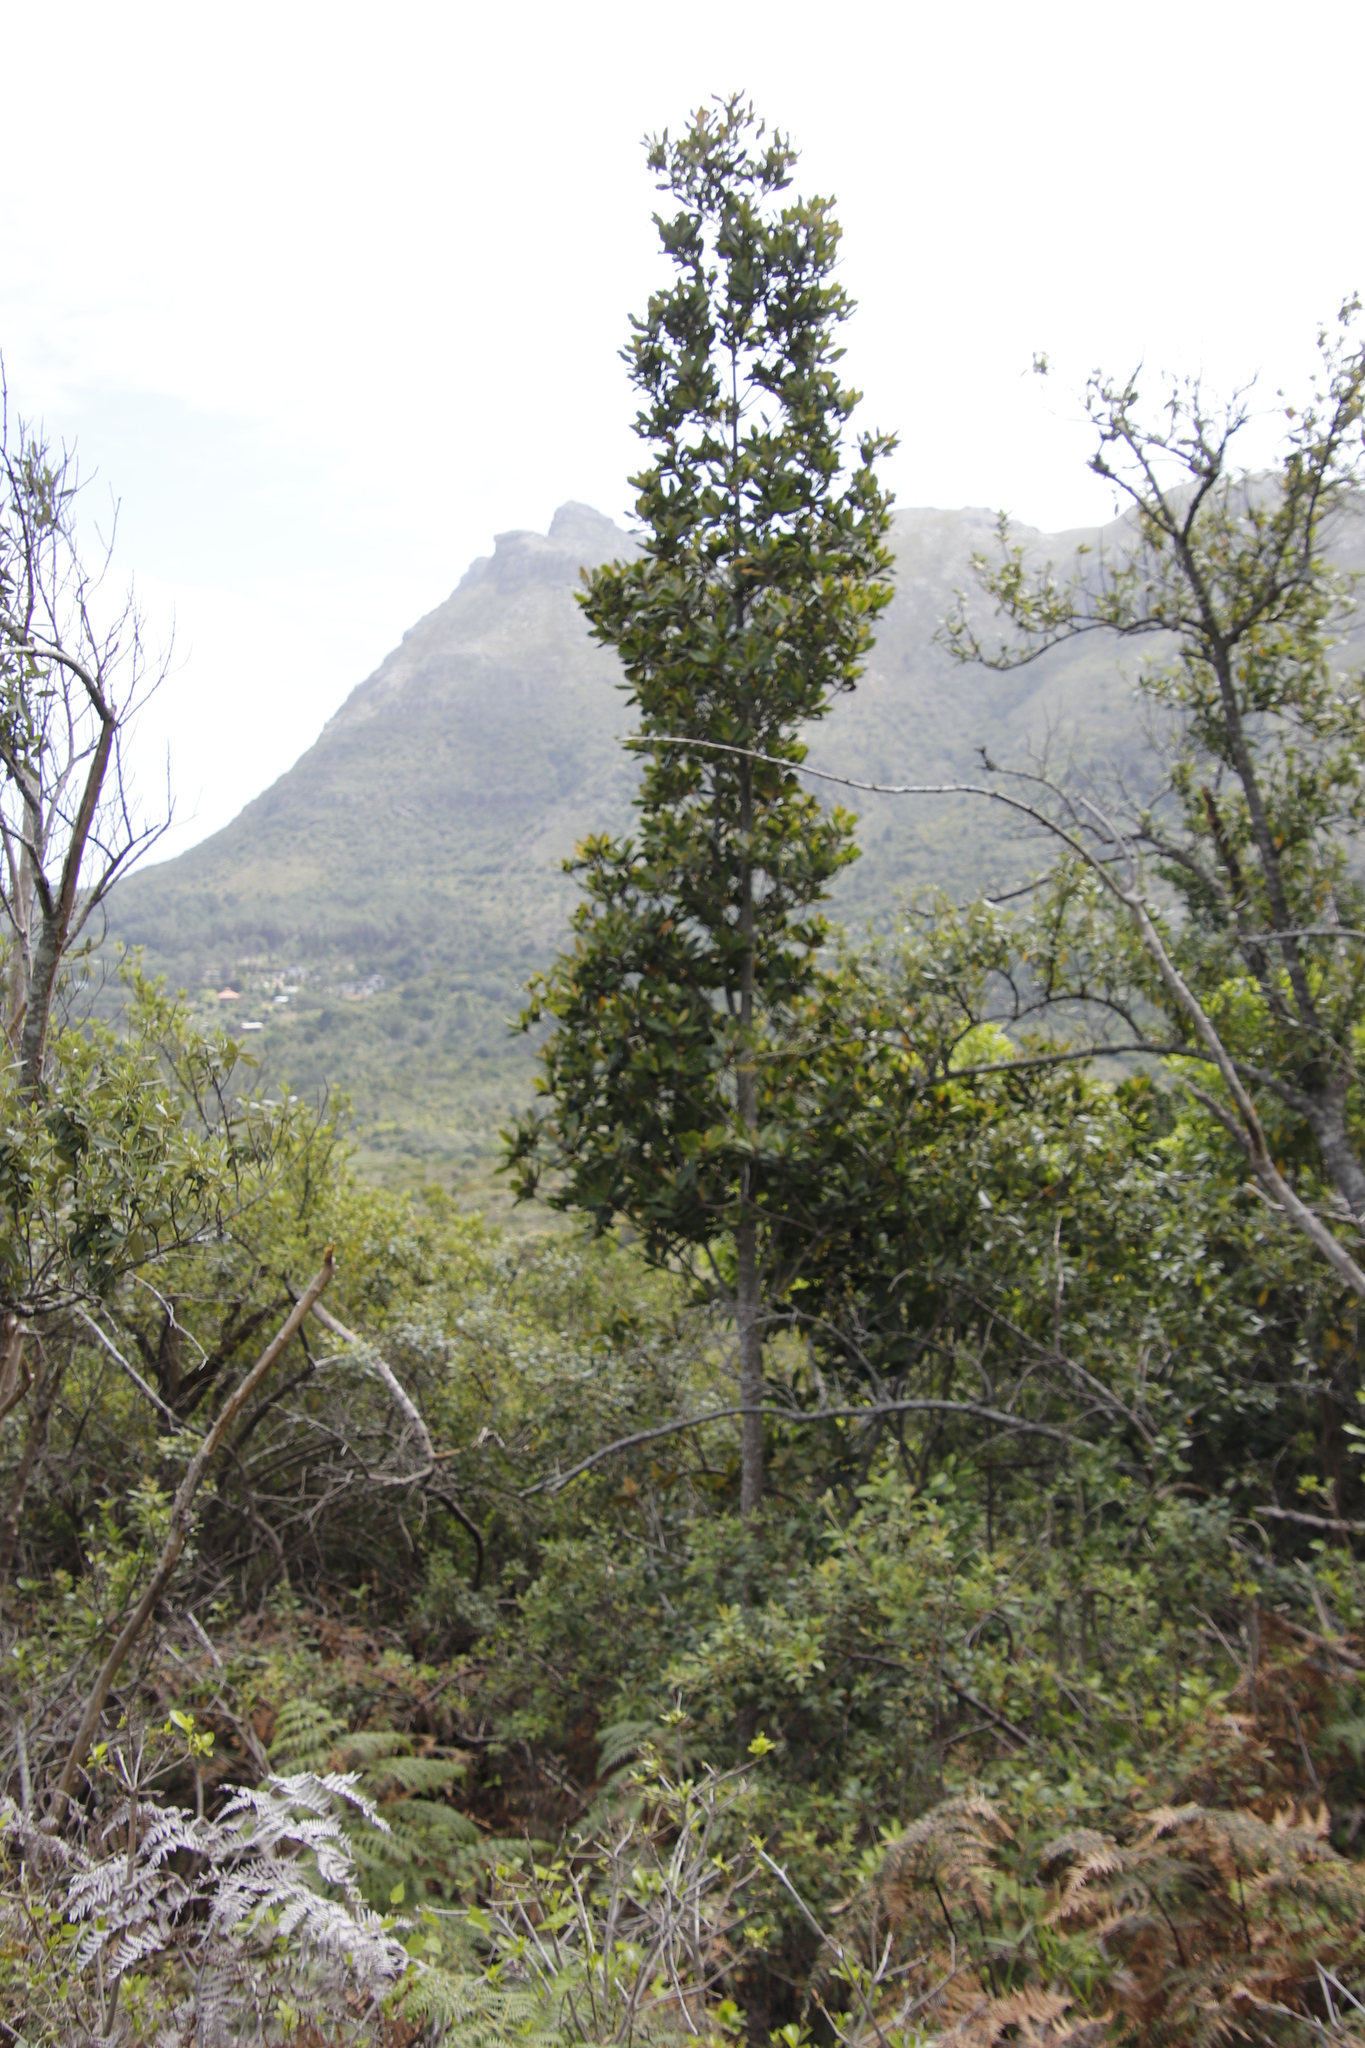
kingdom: Plantae
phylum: Tracheophyta
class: Magnoliopsida
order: Ericales
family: Primulaceae
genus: Myrsine
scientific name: Myrsine melanophloeos
